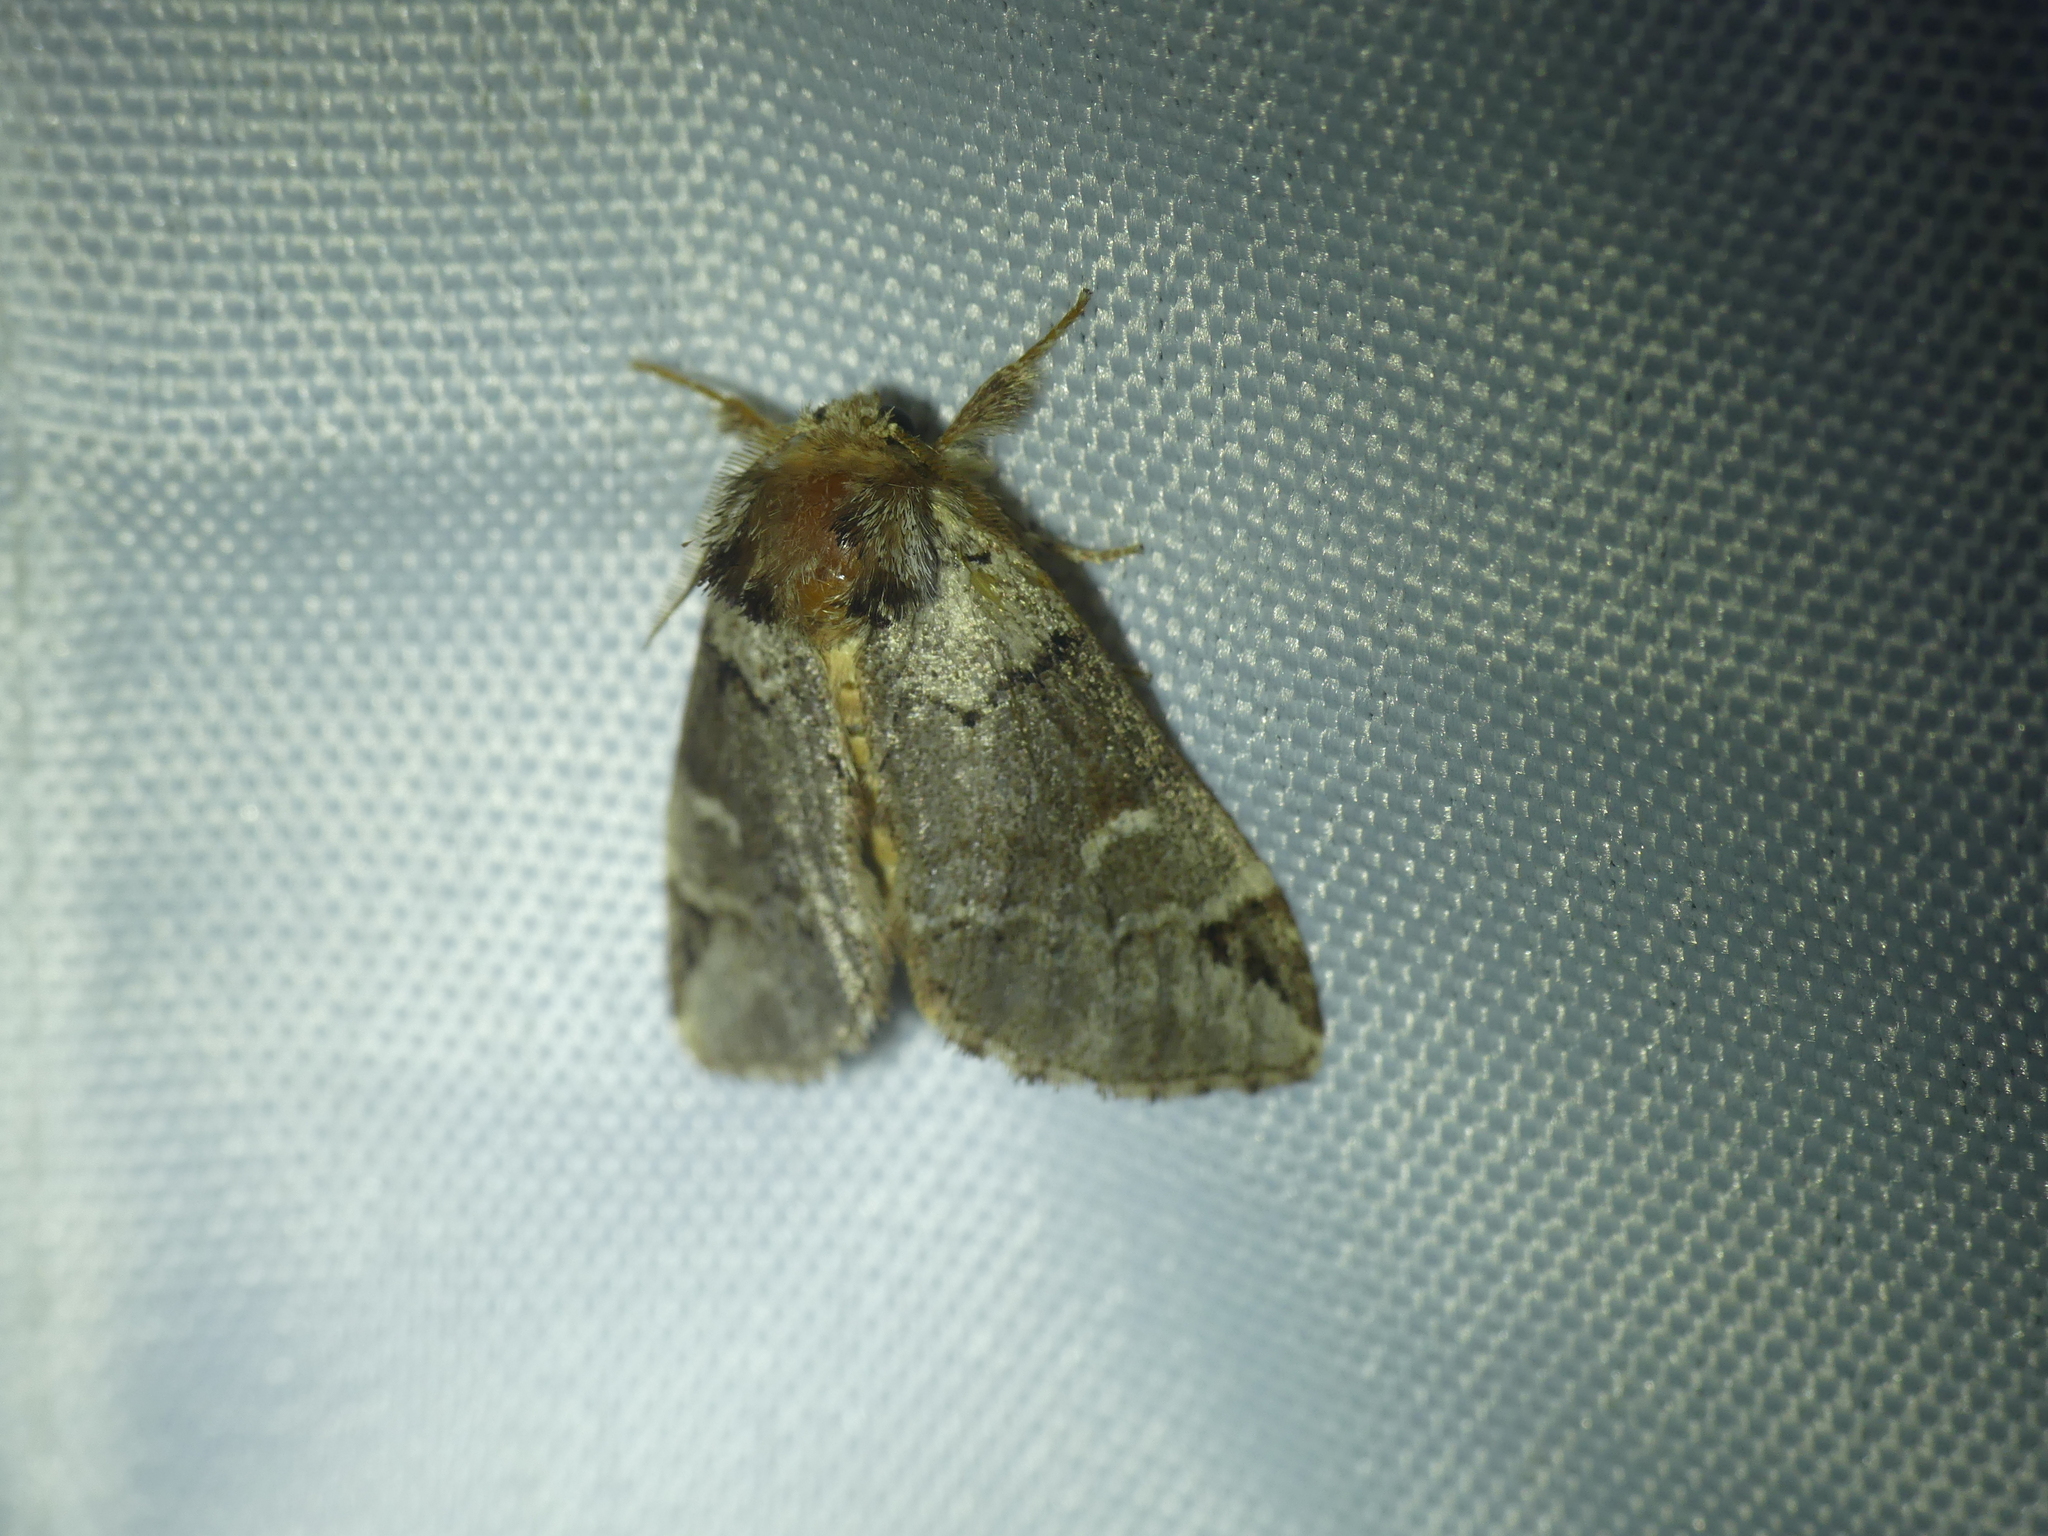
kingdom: Animalia
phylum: Arthropoda
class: Insecta
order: Lepidoptera
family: Notodontidae
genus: Drymonia
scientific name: Drymonia obliterata
